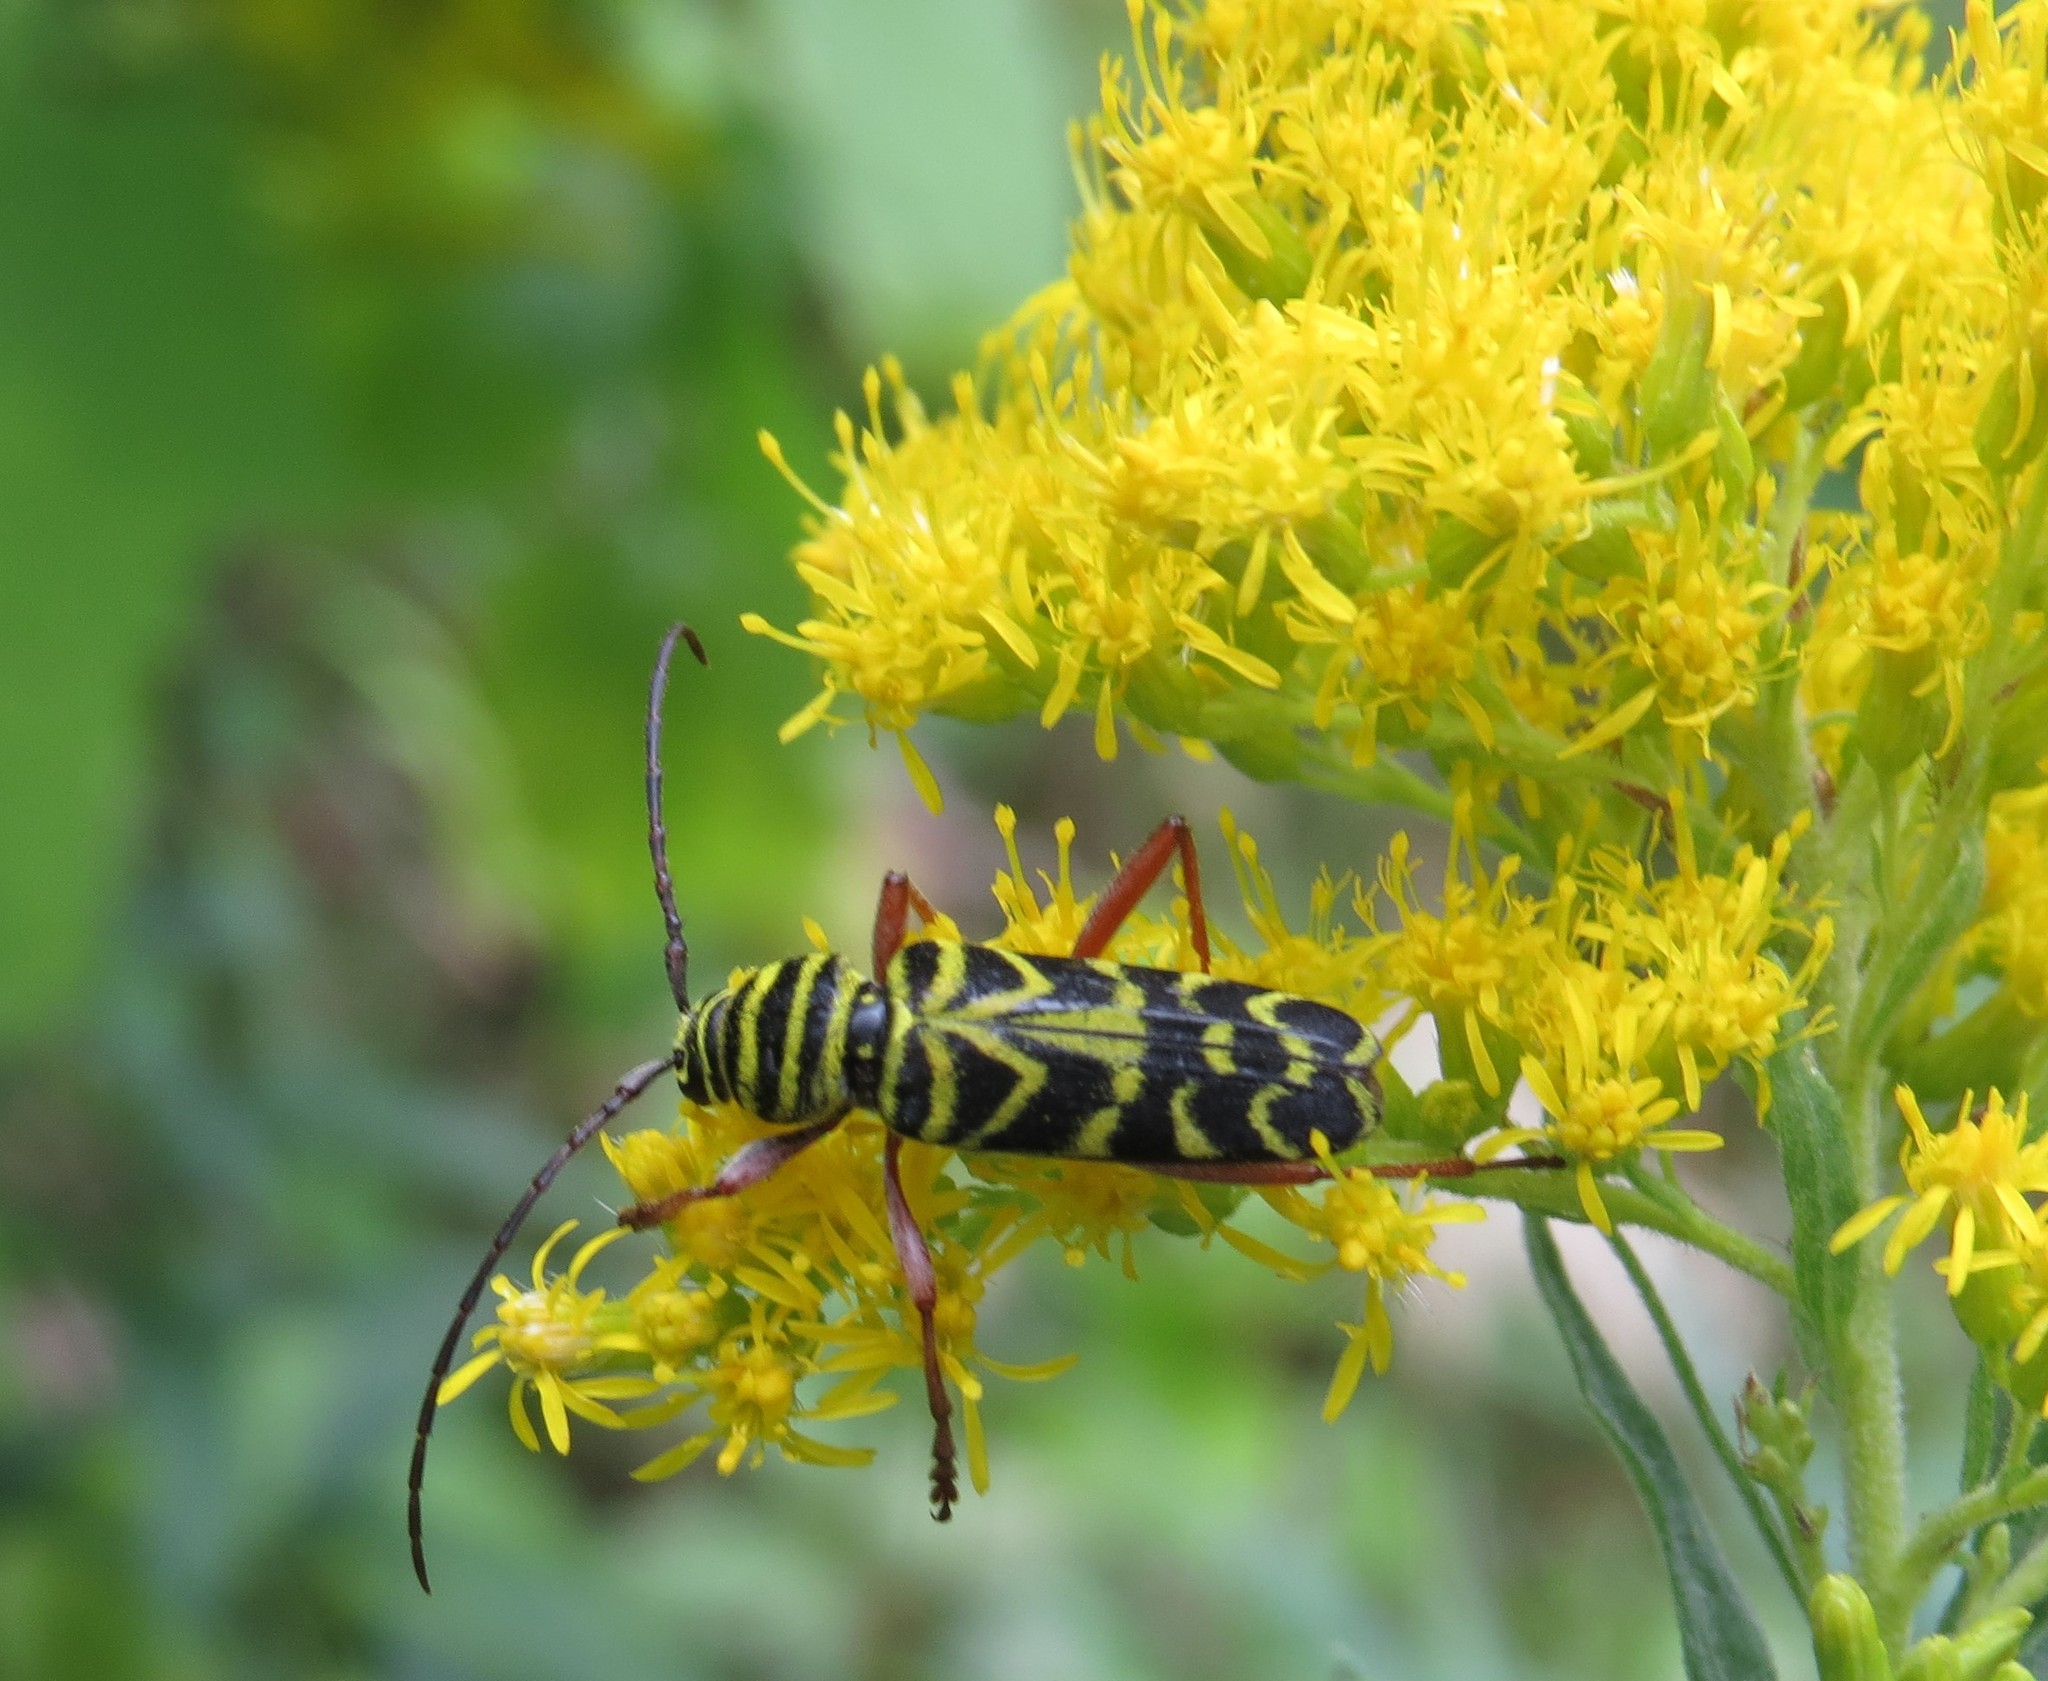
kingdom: Animalia
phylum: Arthropoda
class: Insecta
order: Coleoptera
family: Cerambycidae
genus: Megacyllene
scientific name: Megacyllene robiniae
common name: Locust borer
